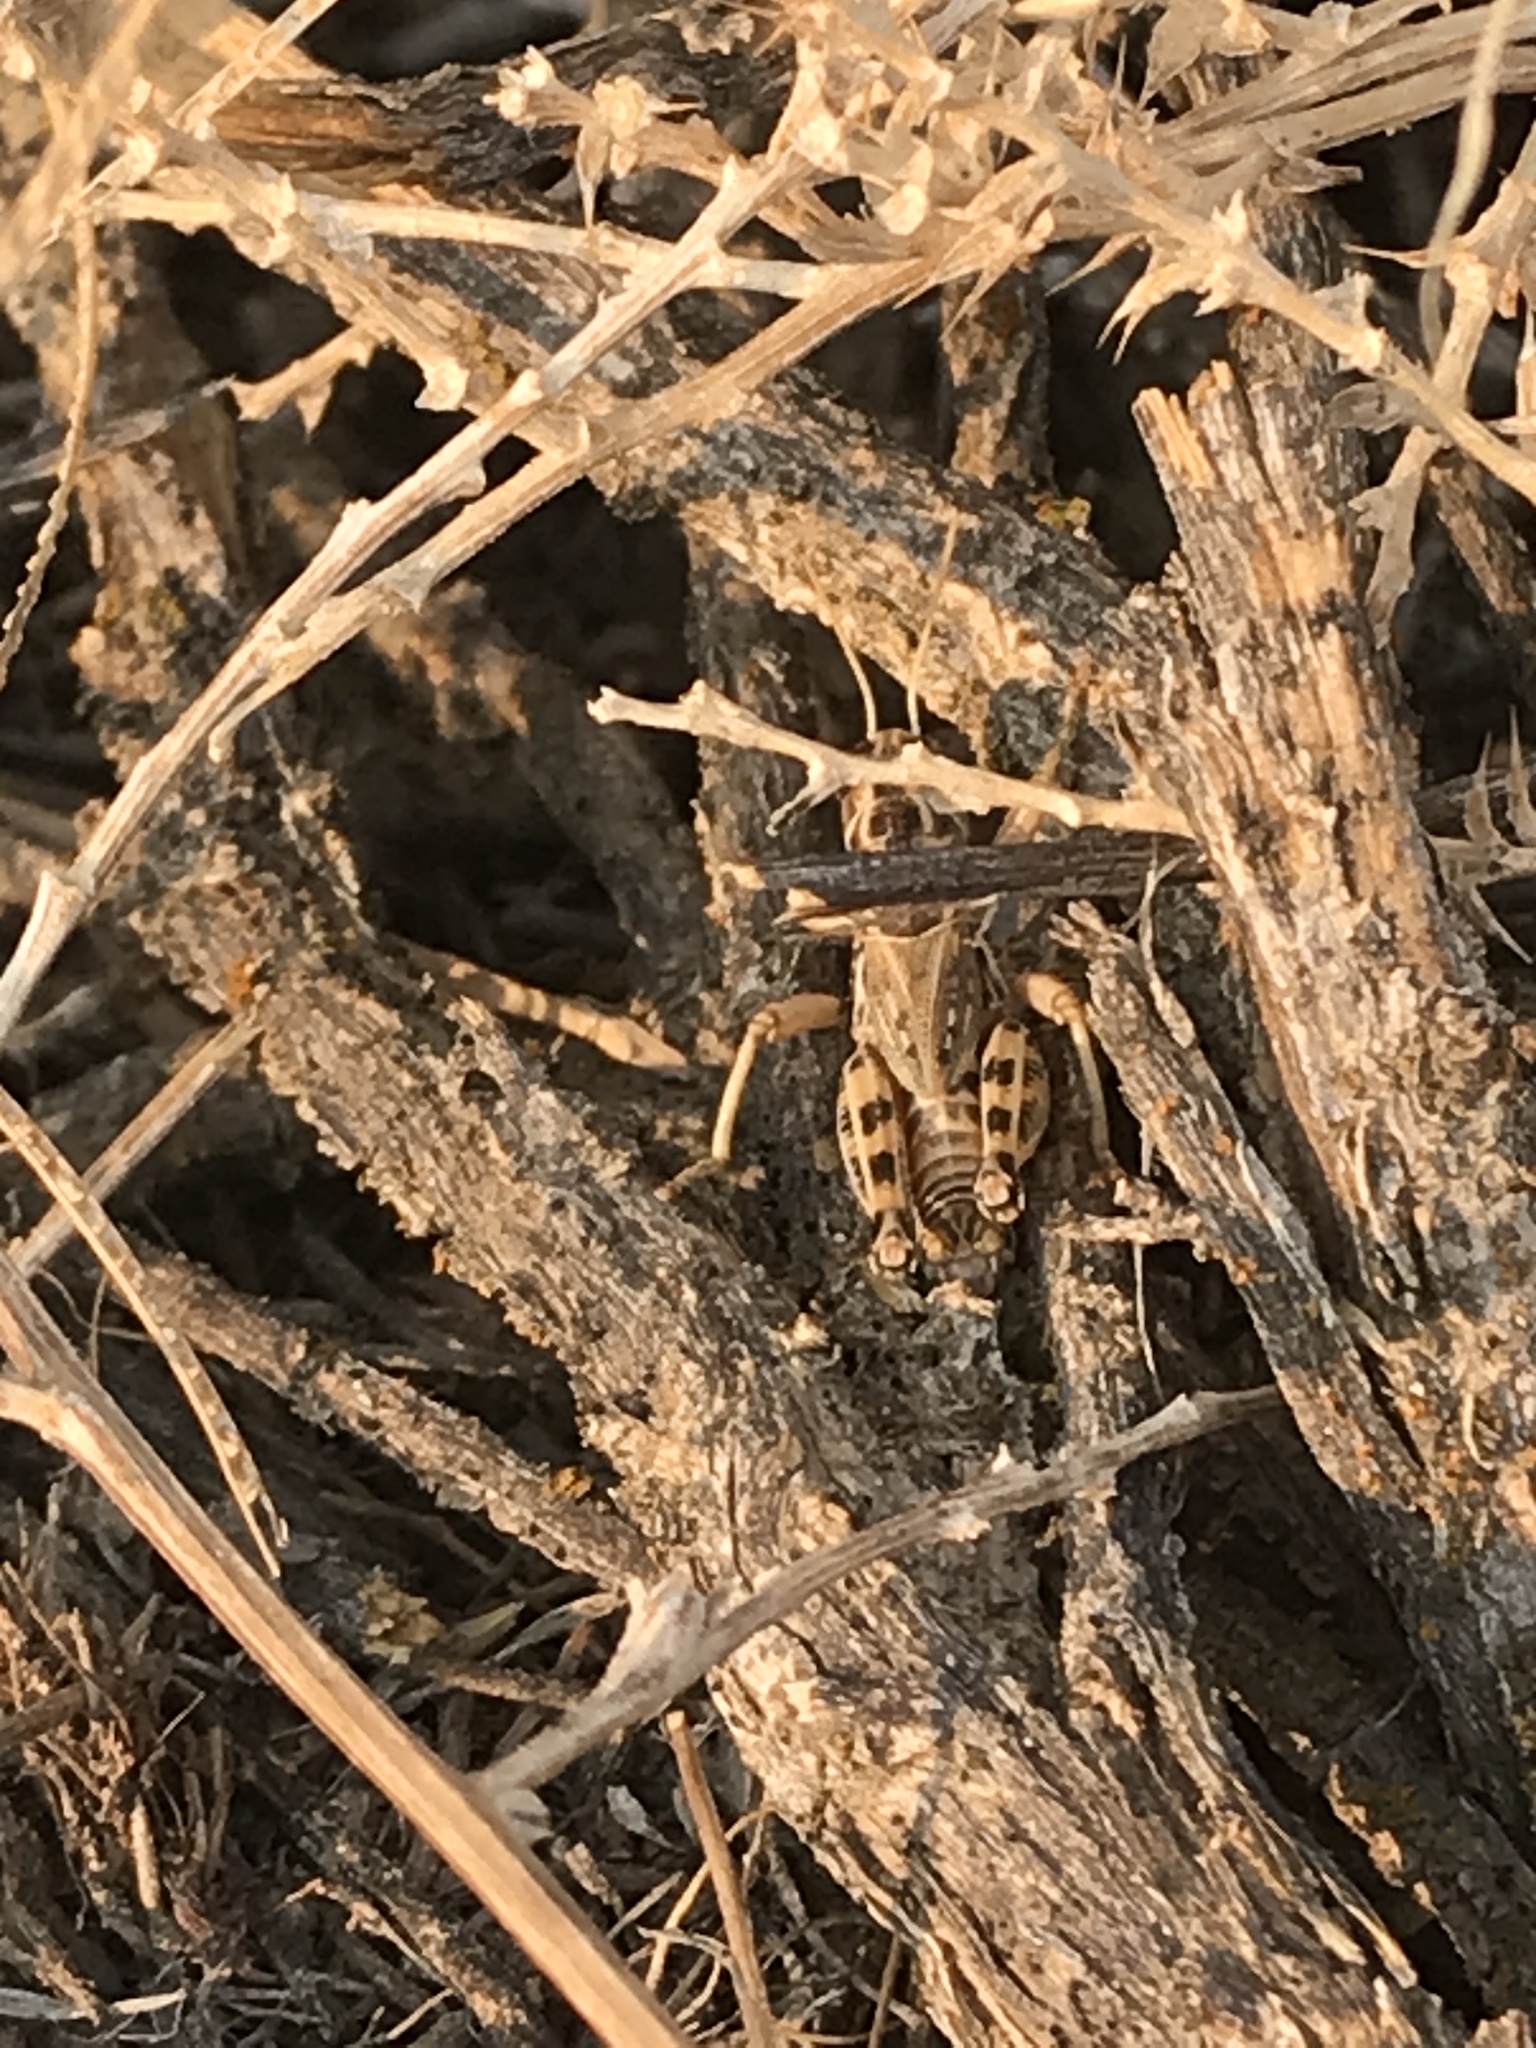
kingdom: Animalia
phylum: Arthropoda
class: Insecta
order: Orthoptera
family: Acrididae
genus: Oedaleonotus
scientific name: Oedaleonotus enigma
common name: Valley grasshopper
